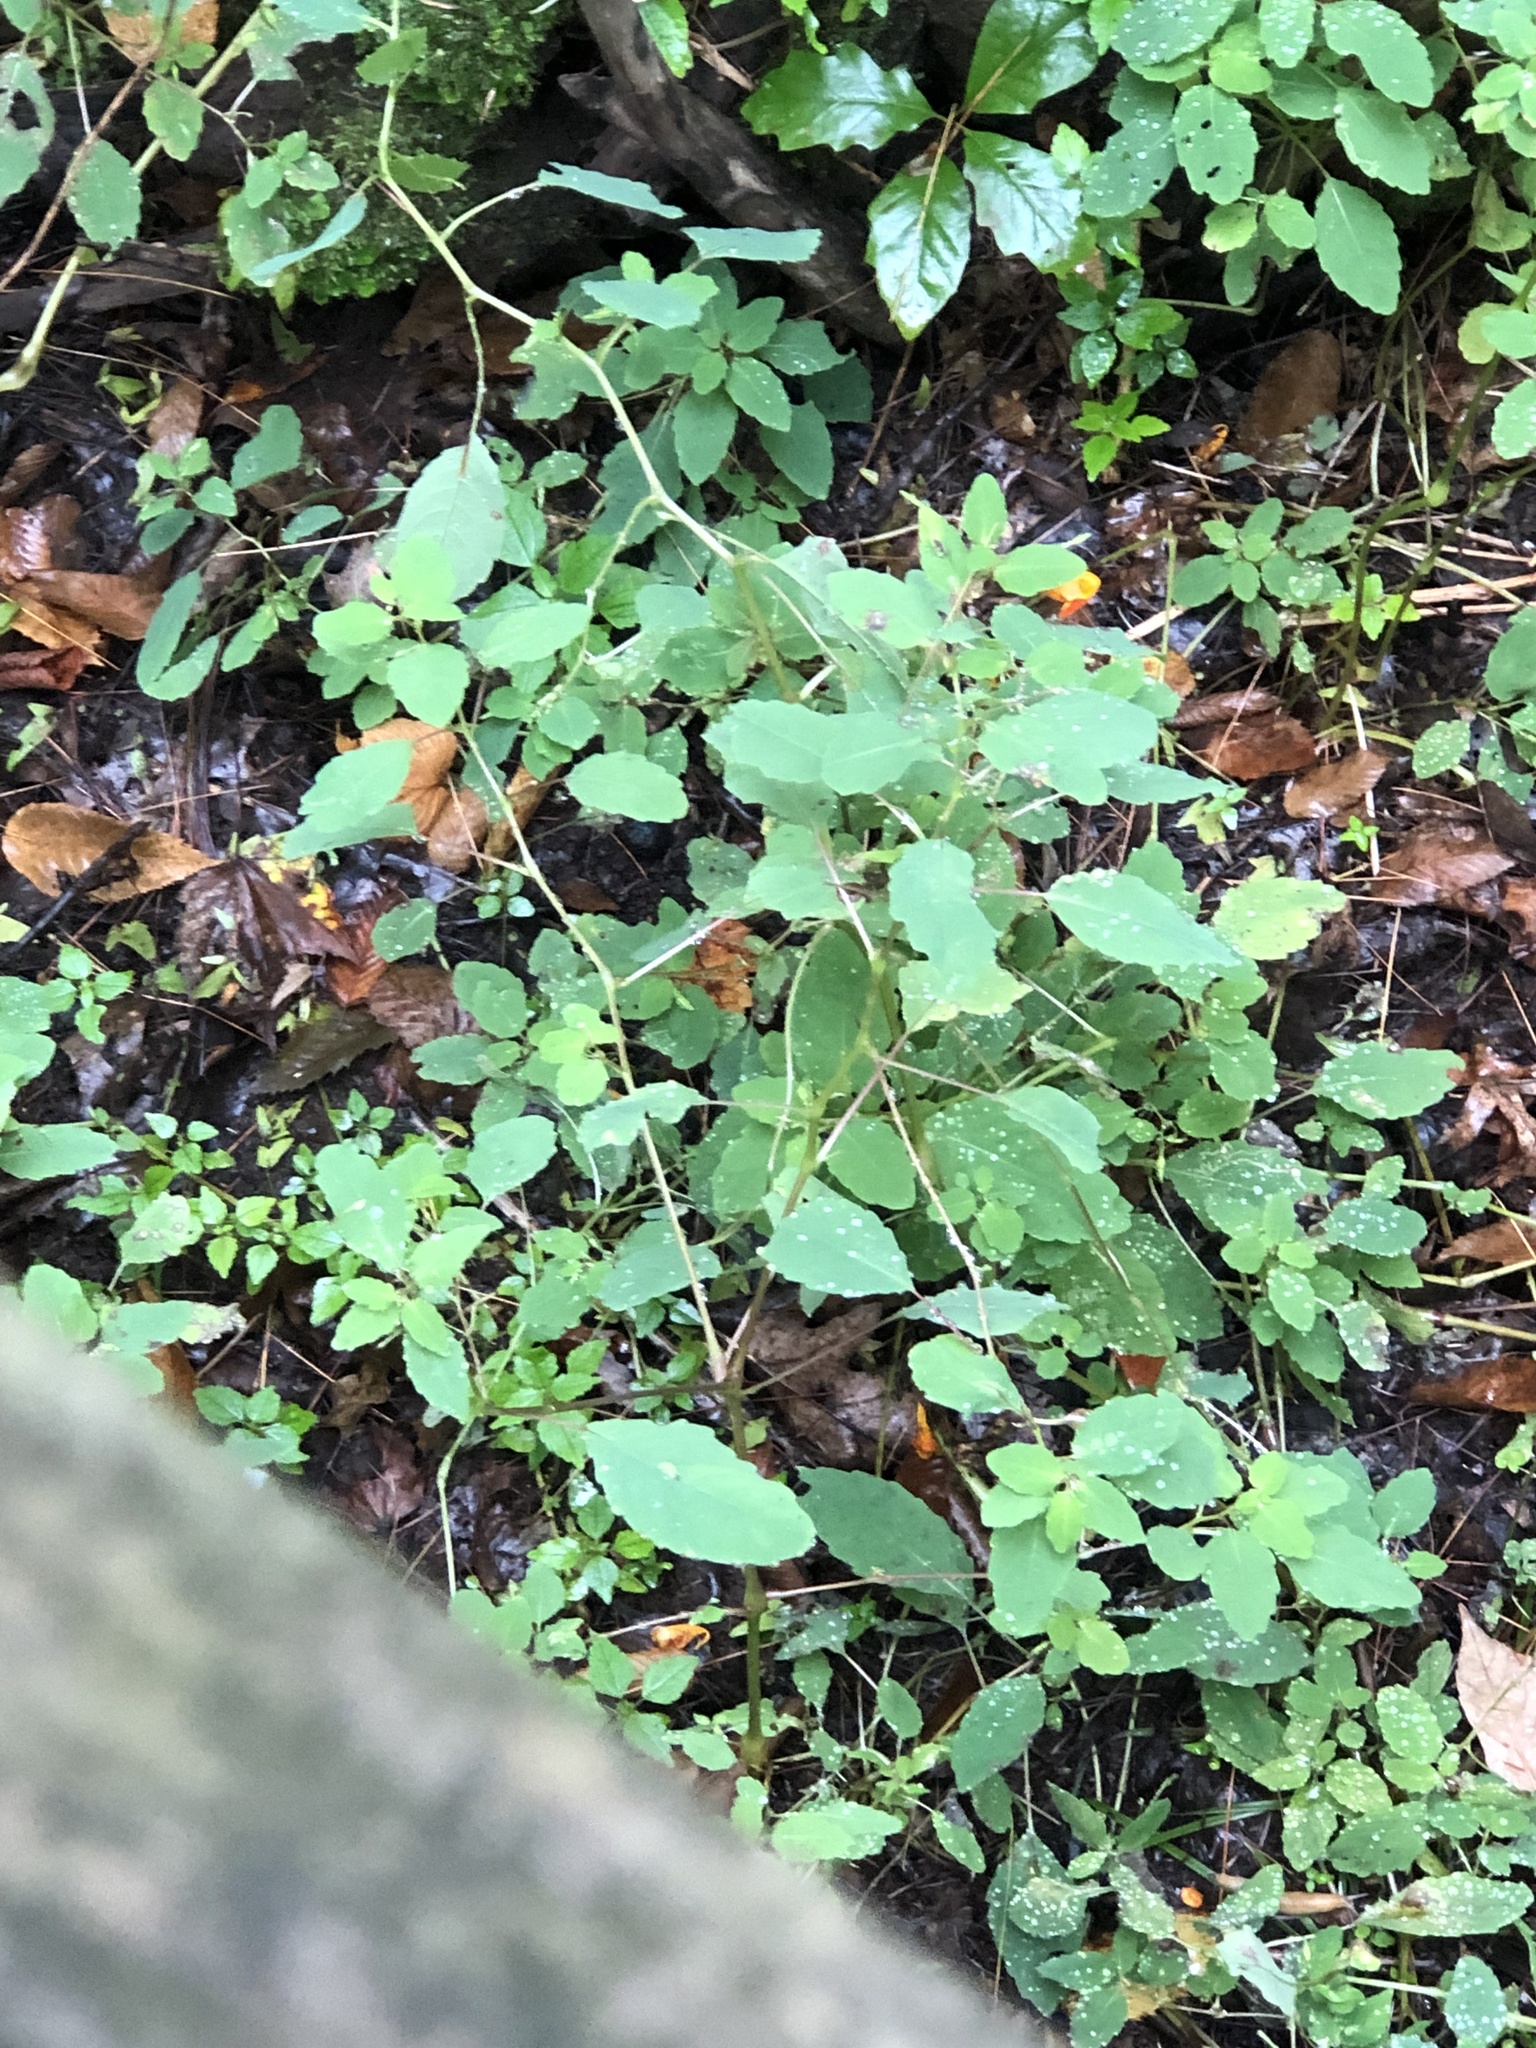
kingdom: Plantae
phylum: Tracheophyta
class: Magnoliopsida
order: Ericales
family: Balsaminaceae
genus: Impatiens
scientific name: Impatiens capensis
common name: Orange balsam
